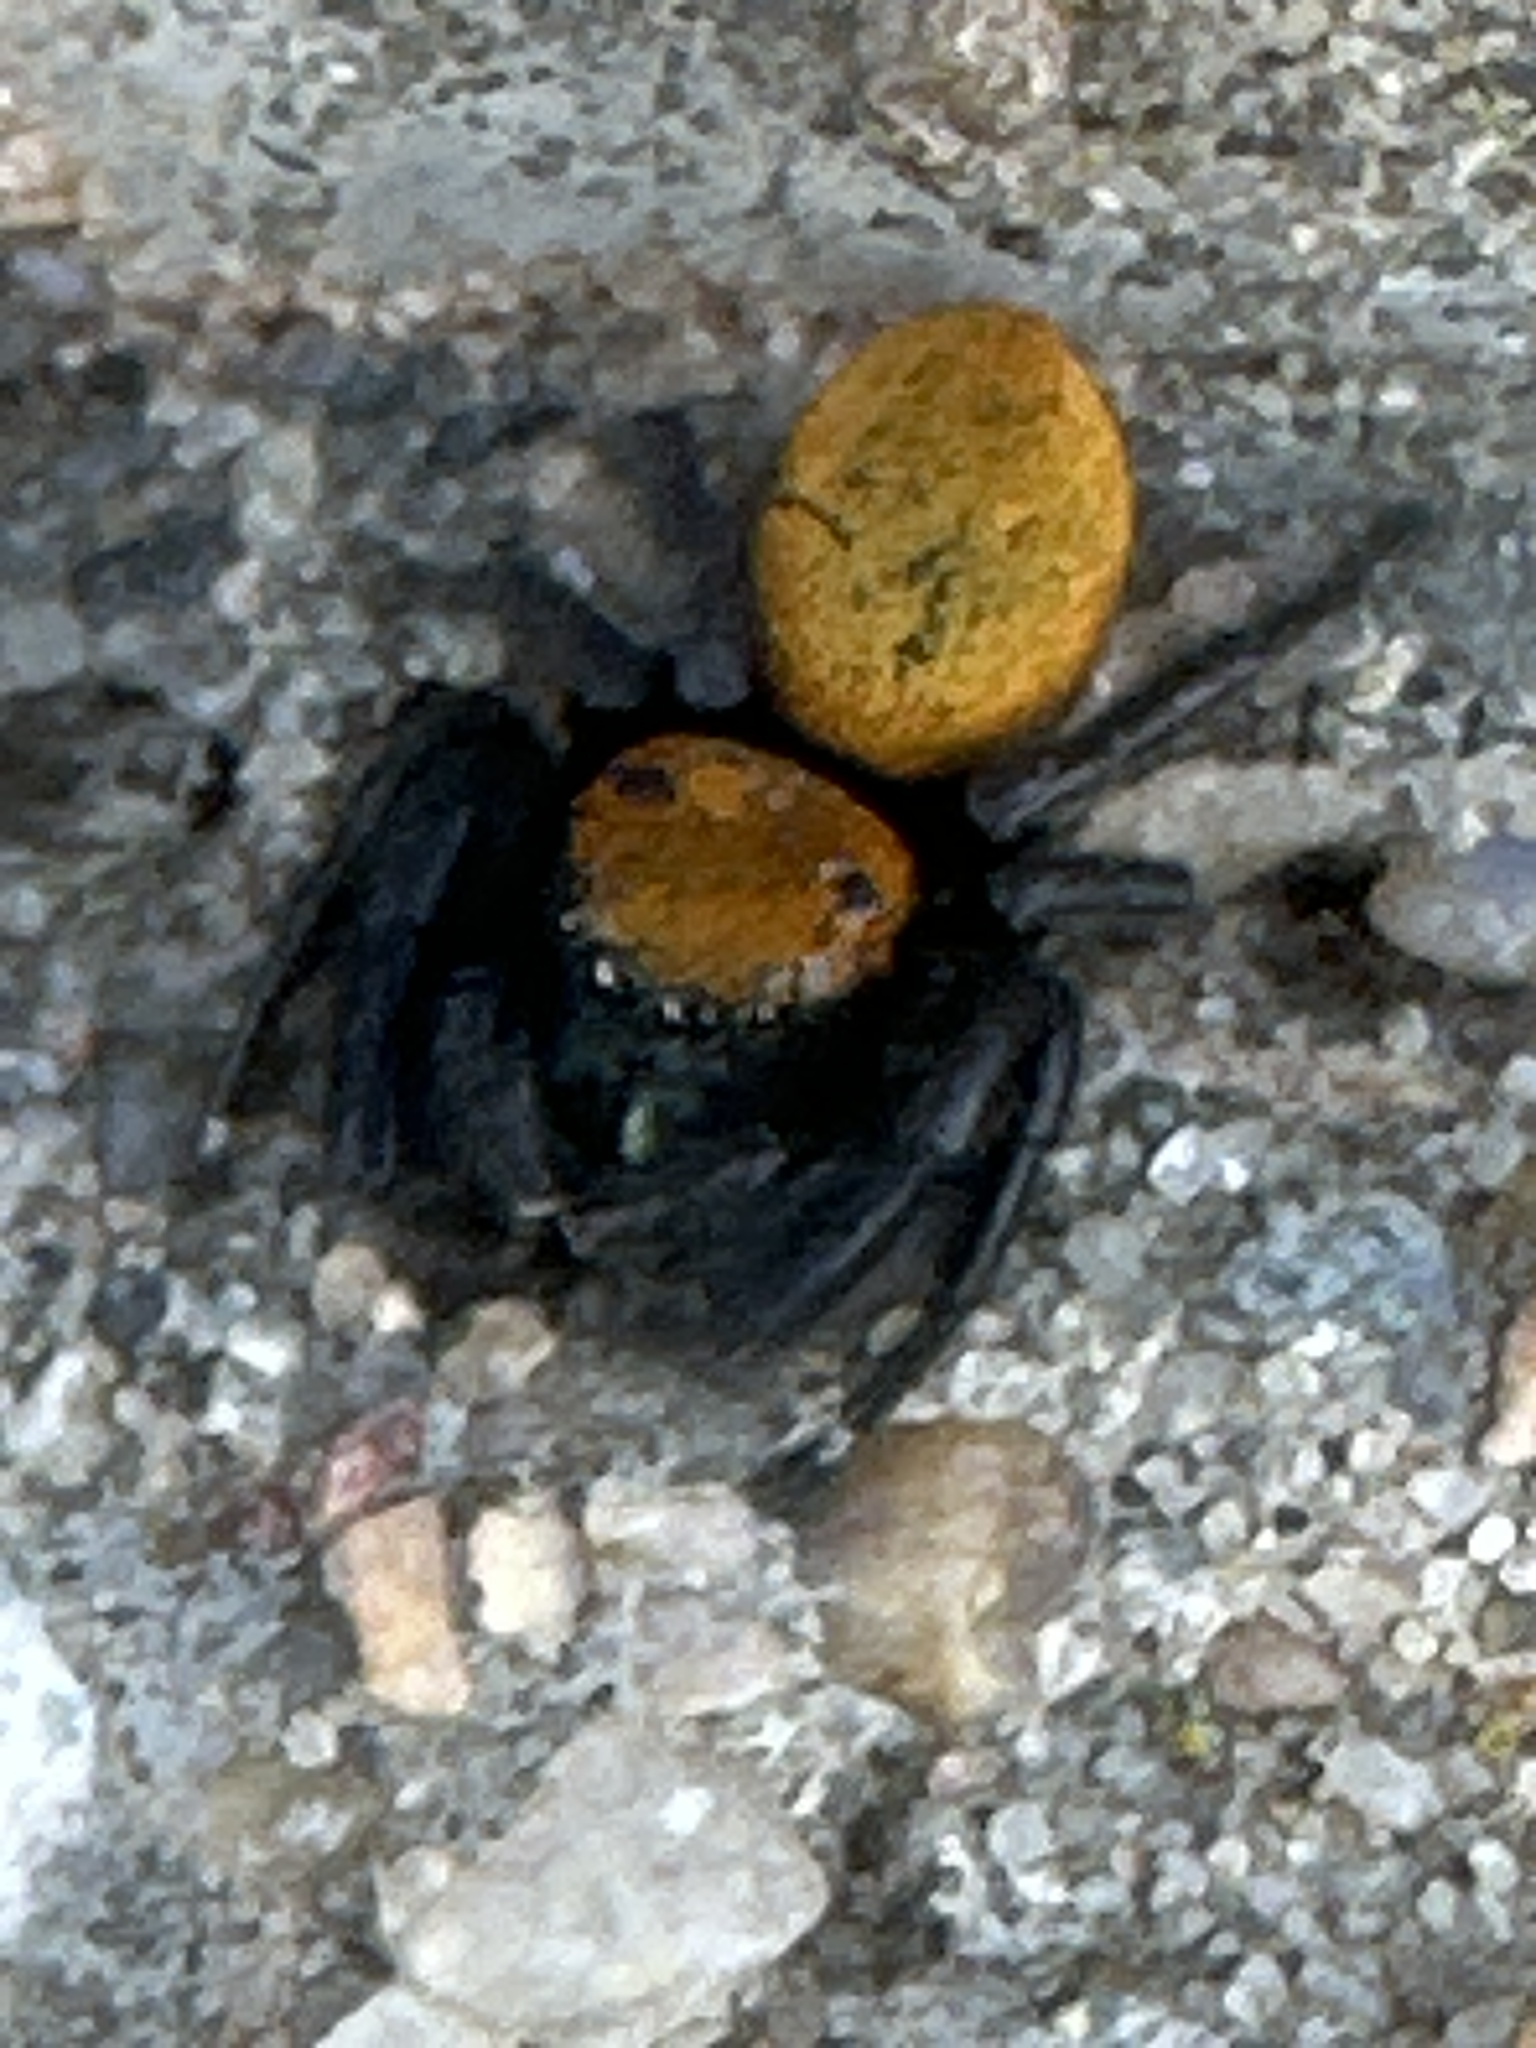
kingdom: Animalia
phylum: Arthropoda
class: Arachnida
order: Araneae
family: Salticidae
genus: Phidippus
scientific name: Phidippus apacheanus
